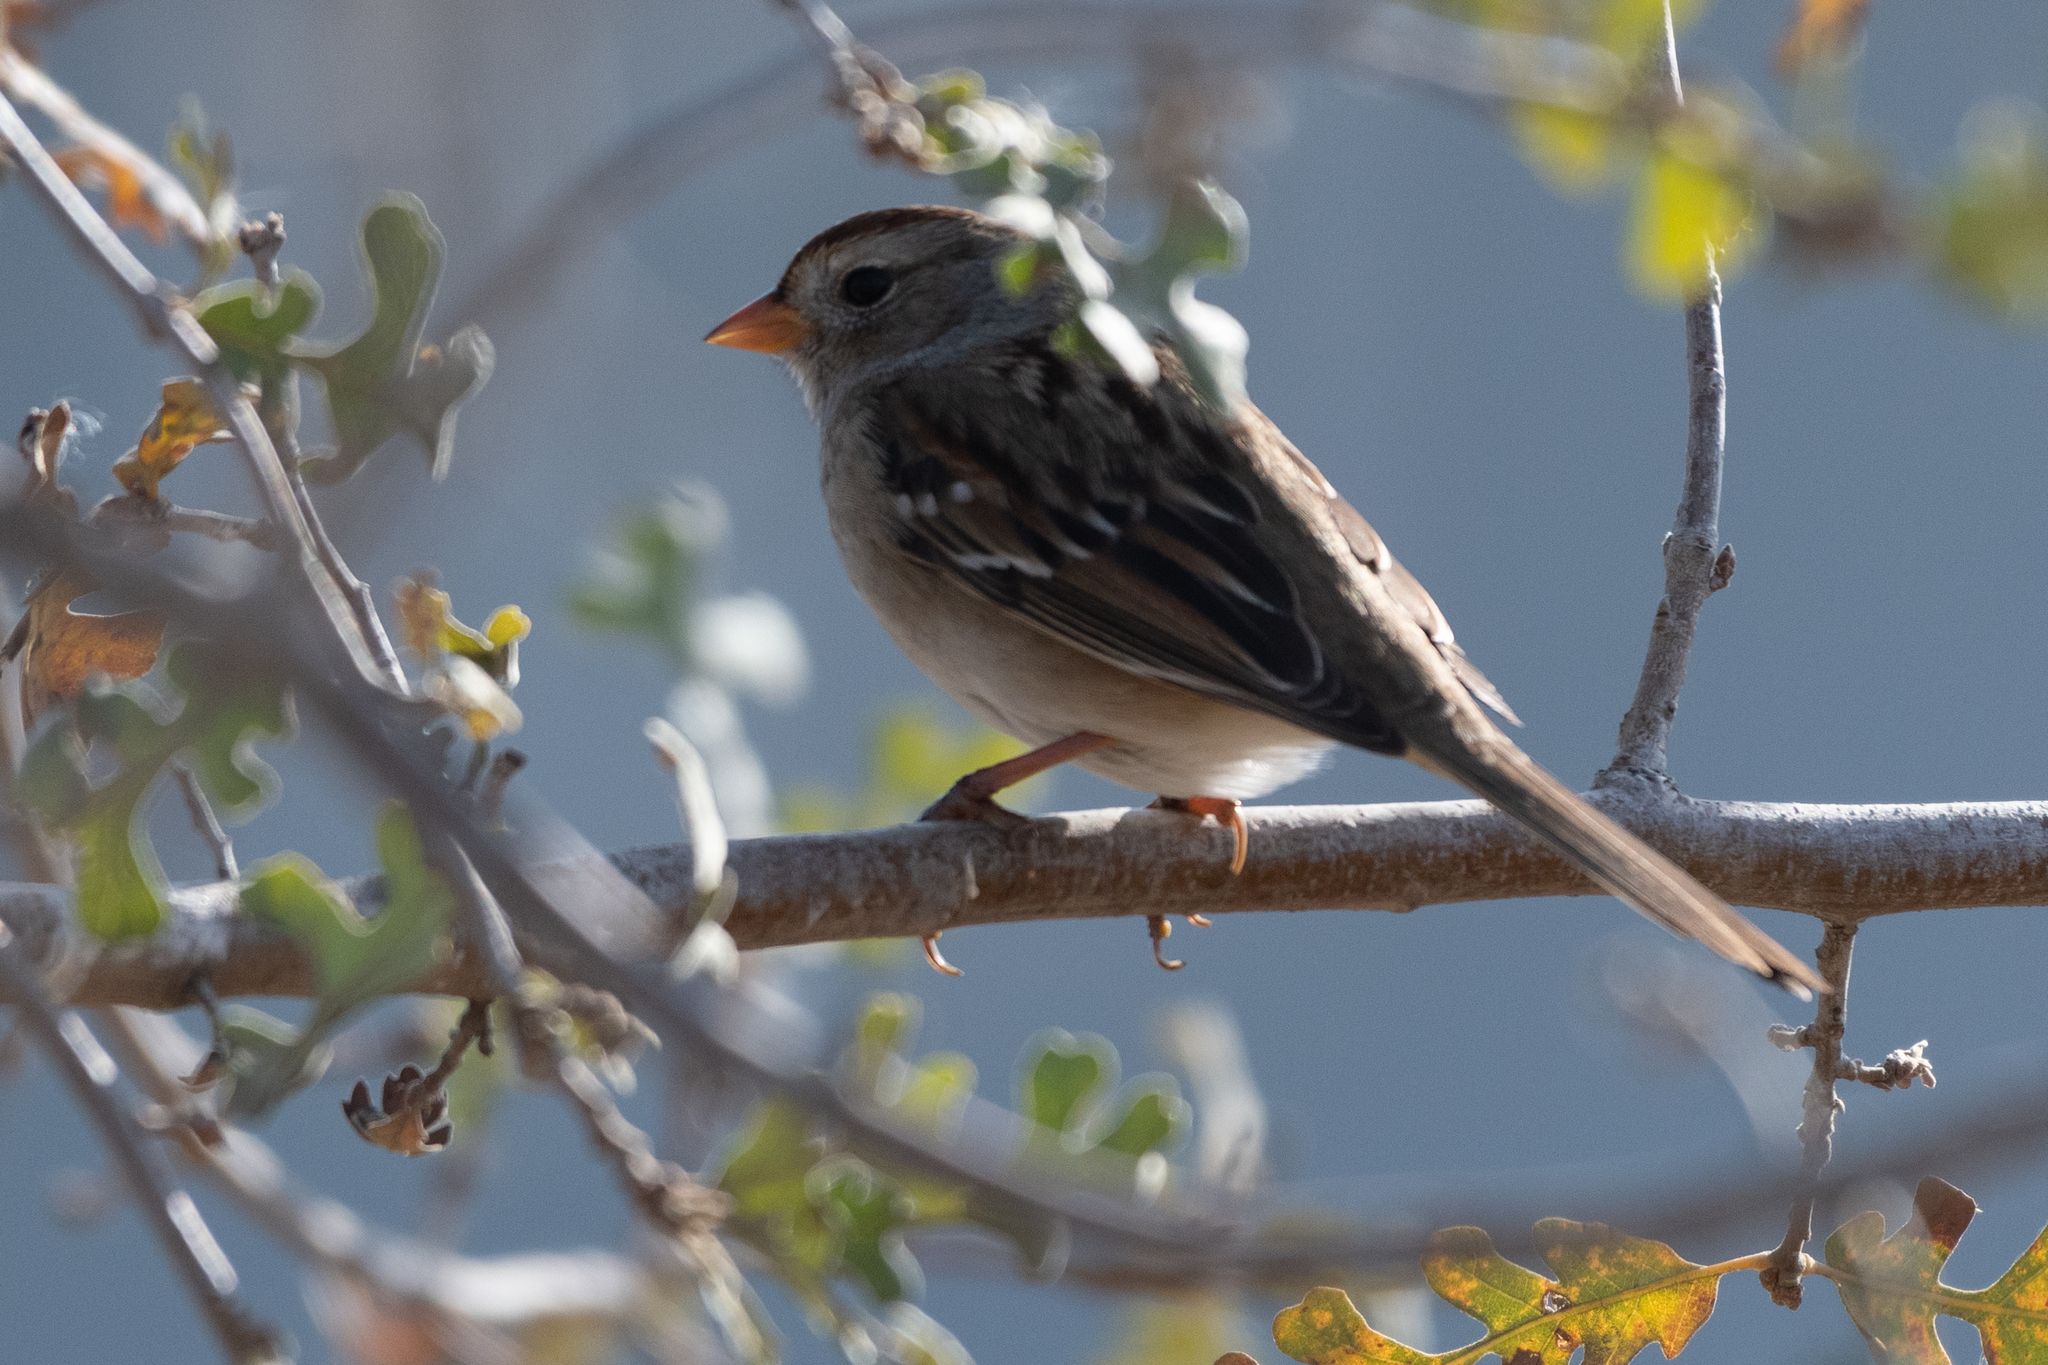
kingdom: Animalia
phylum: Chordata
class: Aves
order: Passeriformes
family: Passerellidae
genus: Zonotrichia
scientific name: Zonotrichia leucophrys
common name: White-crowned sparrow
